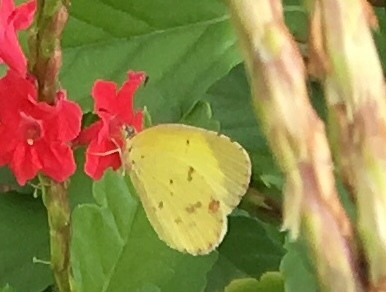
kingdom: Animalia
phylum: Arthropoda
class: Insecta
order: Lepidoptera
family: Pieridae
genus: Pyrisitia
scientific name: Pyrisitia lisa
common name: Little yellow
